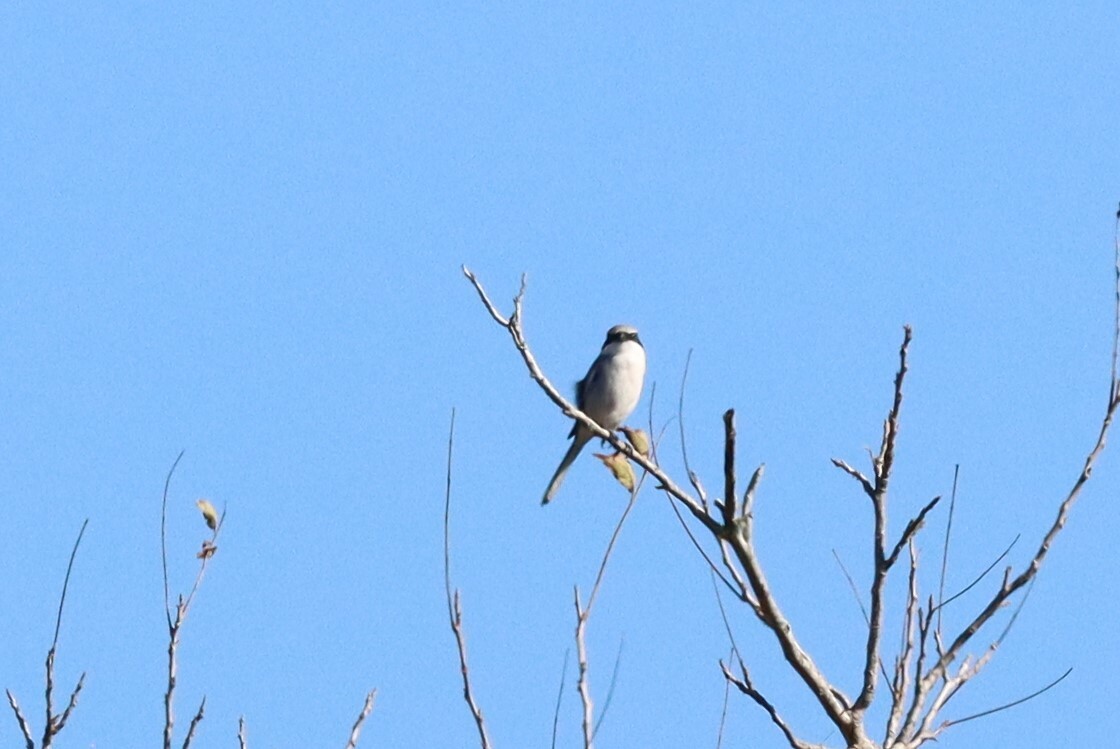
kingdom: Animalia
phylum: Chordata
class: Aves
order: Passeriformes
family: Laniidae
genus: Lanius
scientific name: Lanius ludovicianus
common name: Loggerhead shrike
